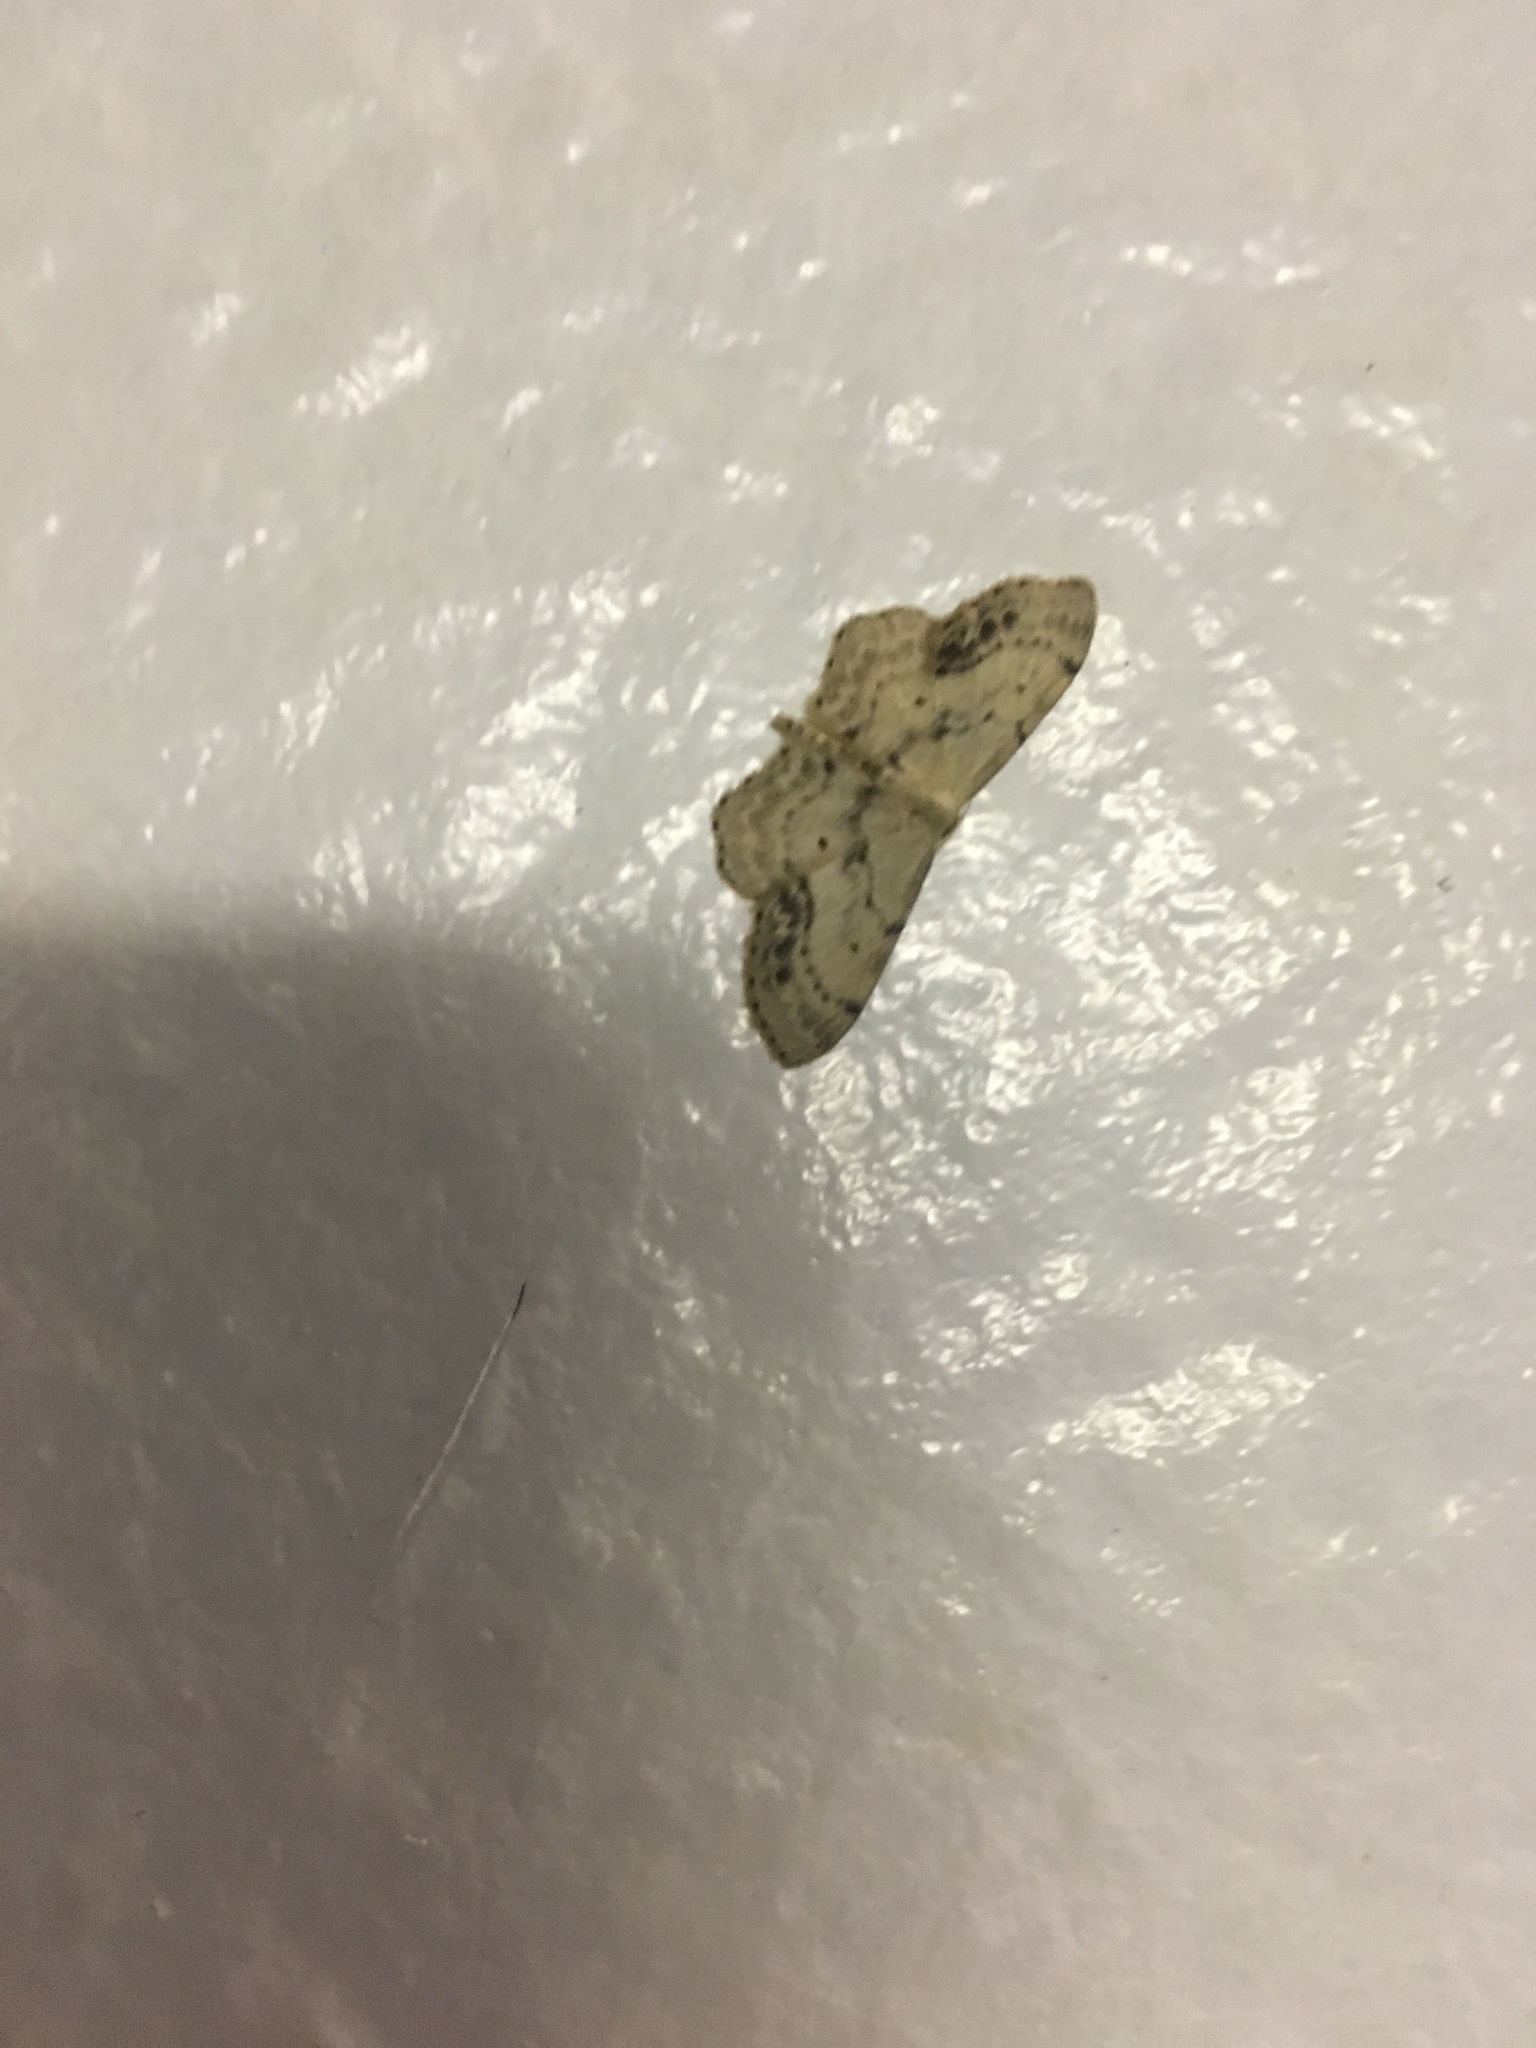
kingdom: Animalia
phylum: Arthropoda
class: Insecta
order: Lepidoptera
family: Geometridae
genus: Idaea
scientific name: Idaea dimidiata
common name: Single-dotted wave
